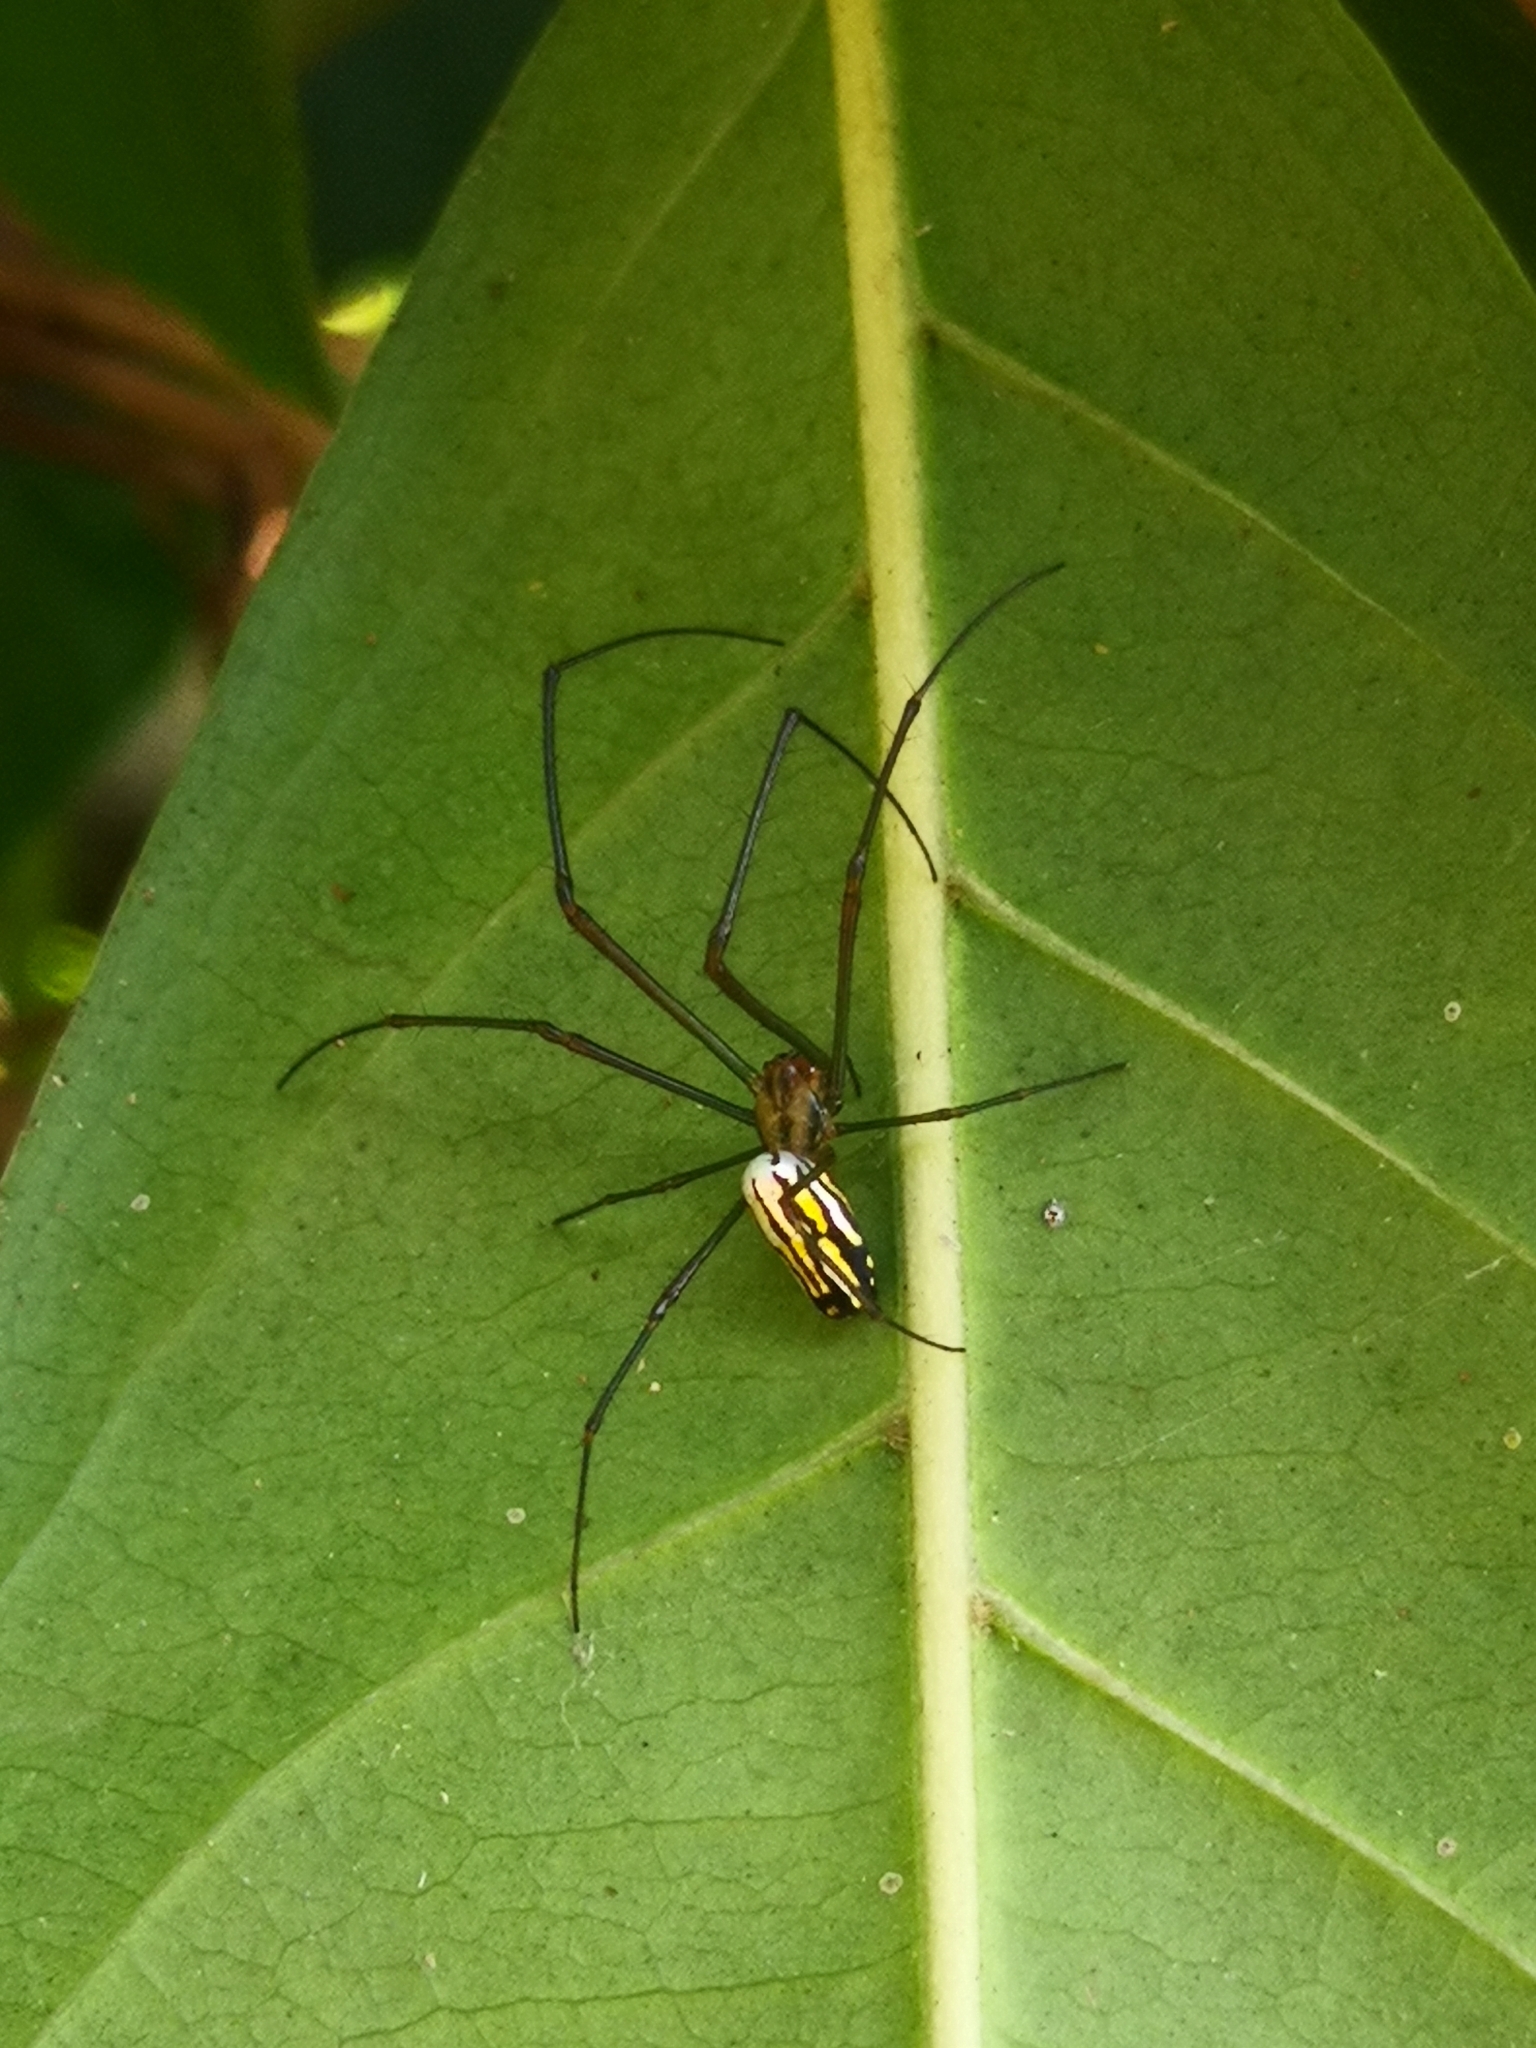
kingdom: Animalia
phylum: Arthropoda
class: Arachnida
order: Araneae
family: Tetragnathidae
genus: Leucauge
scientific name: Leucauge argyra
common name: Longjawed orb weavers
